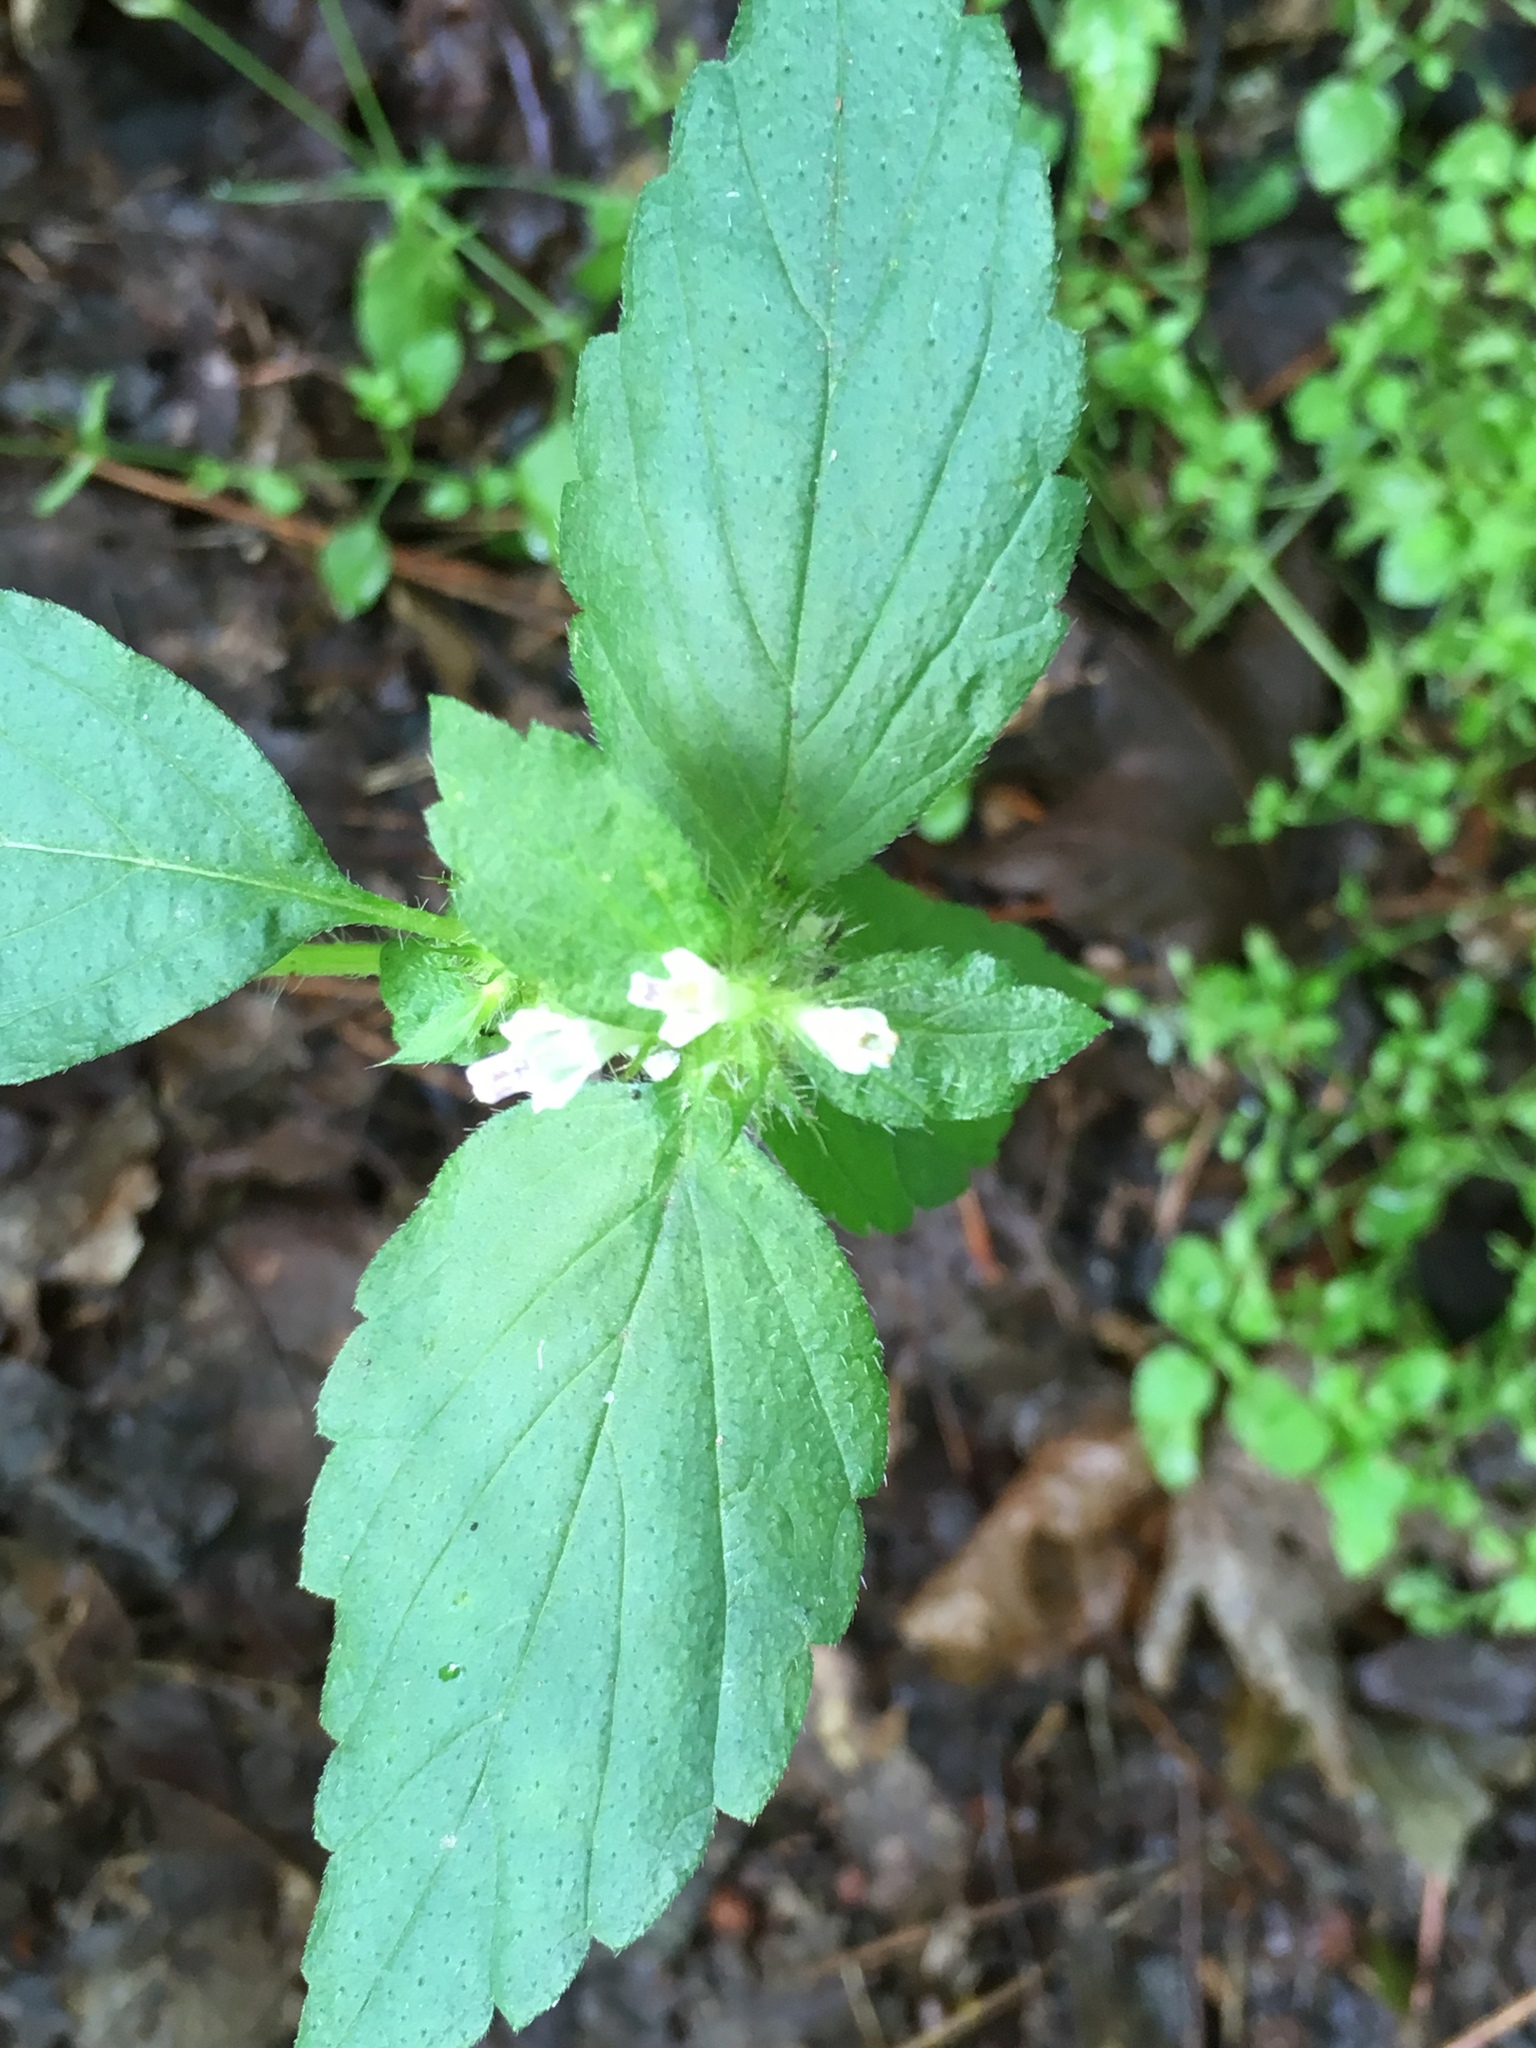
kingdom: Plantae
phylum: Tracheophyta
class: Magnoliopsida
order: Lamiales
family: Lamiaceae
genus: Galeopsis
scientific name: Galeopsis bifida
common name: Bifid hemp-nettle
